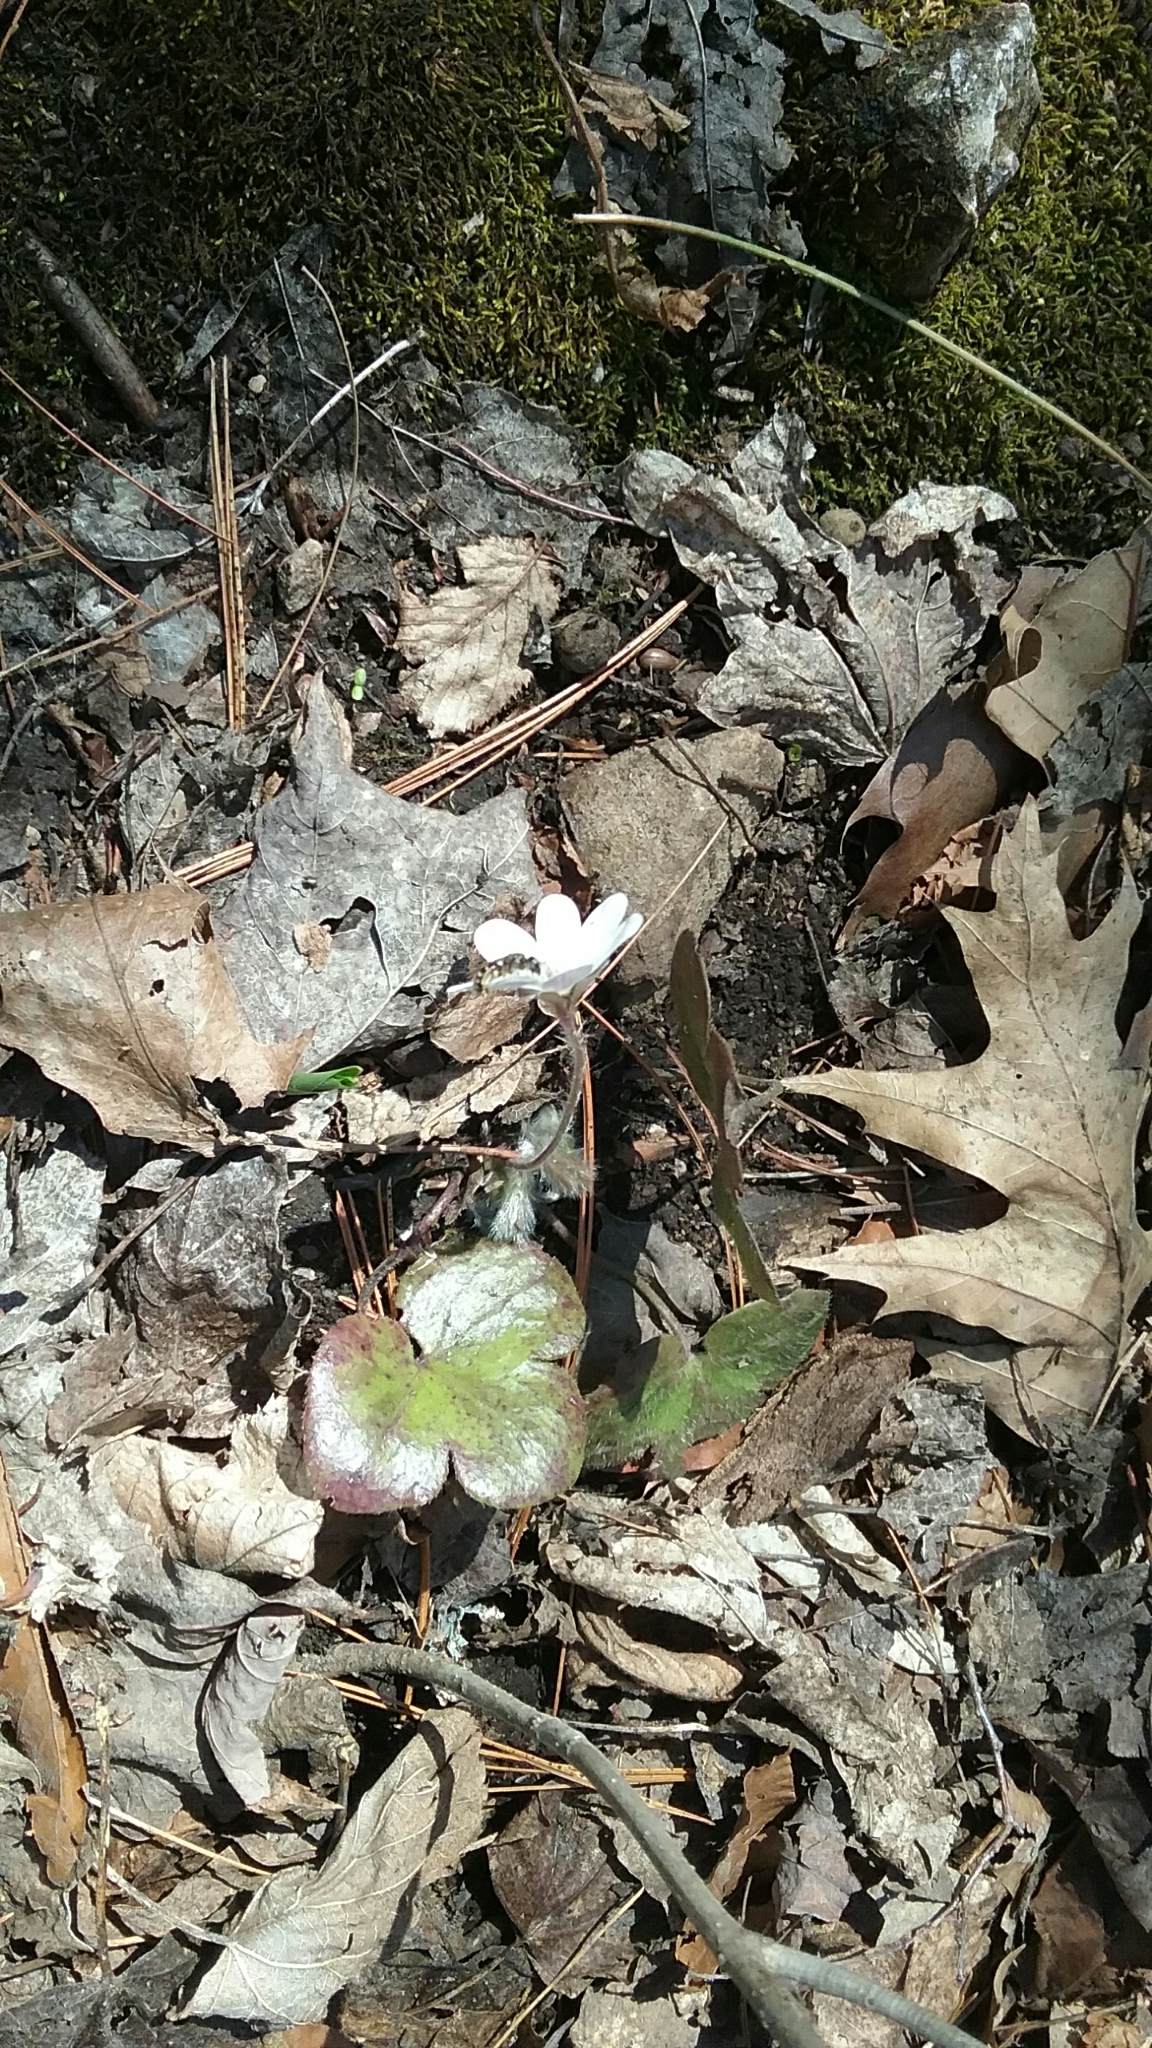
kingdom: Plantae
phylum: Tracheophyta
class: Magnoliopsida
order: Ranunculales
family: Ranunculaceae
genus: Hepatica
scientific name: Hepatica americana
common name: American hepatica
